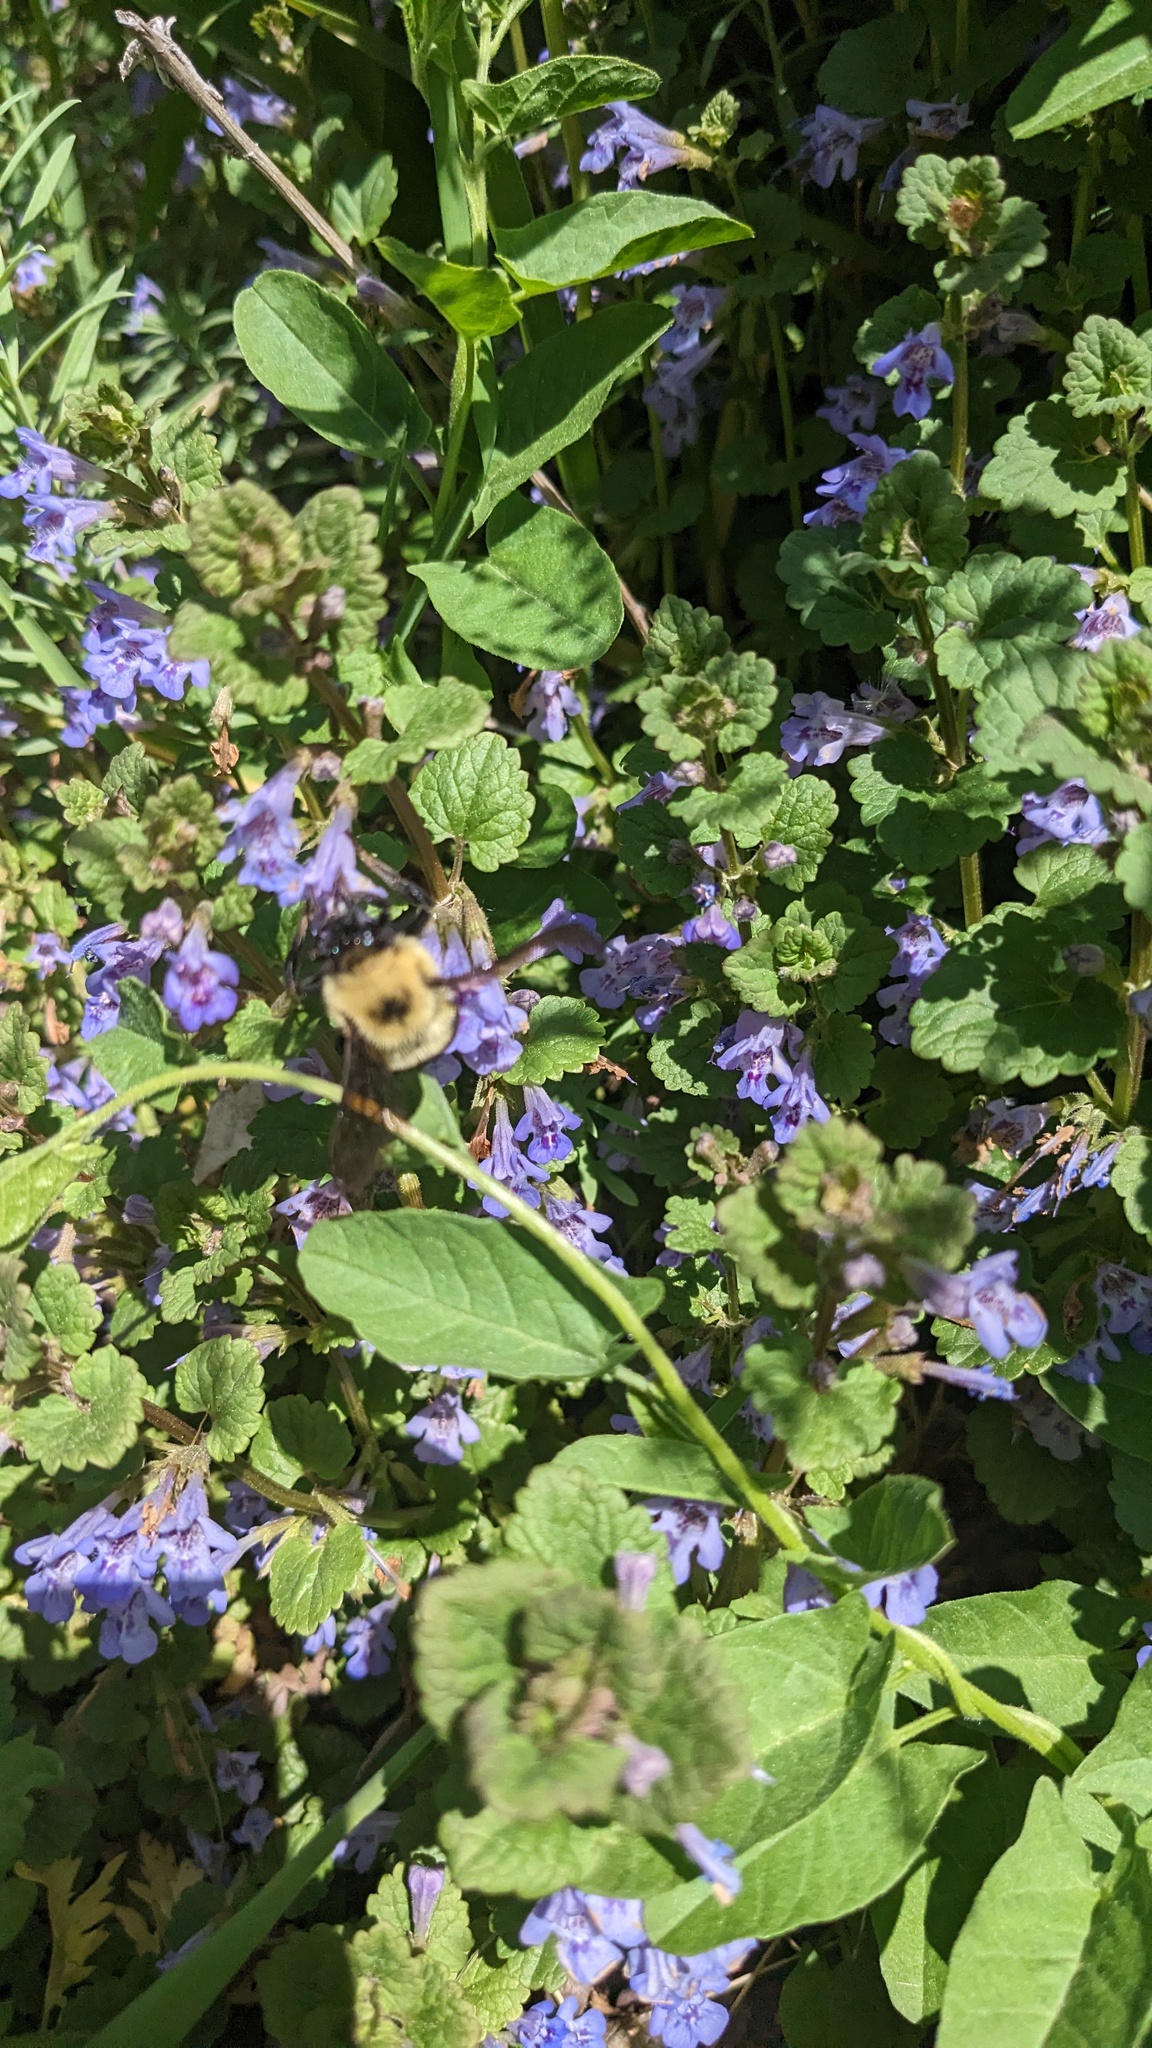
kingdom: Animalia
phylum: Arthropoda
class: Insecta
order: Hymenoptera
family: Apidae
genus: Bombus
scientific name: Bombus bimaculatus
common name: Two-spotted bumble bee
